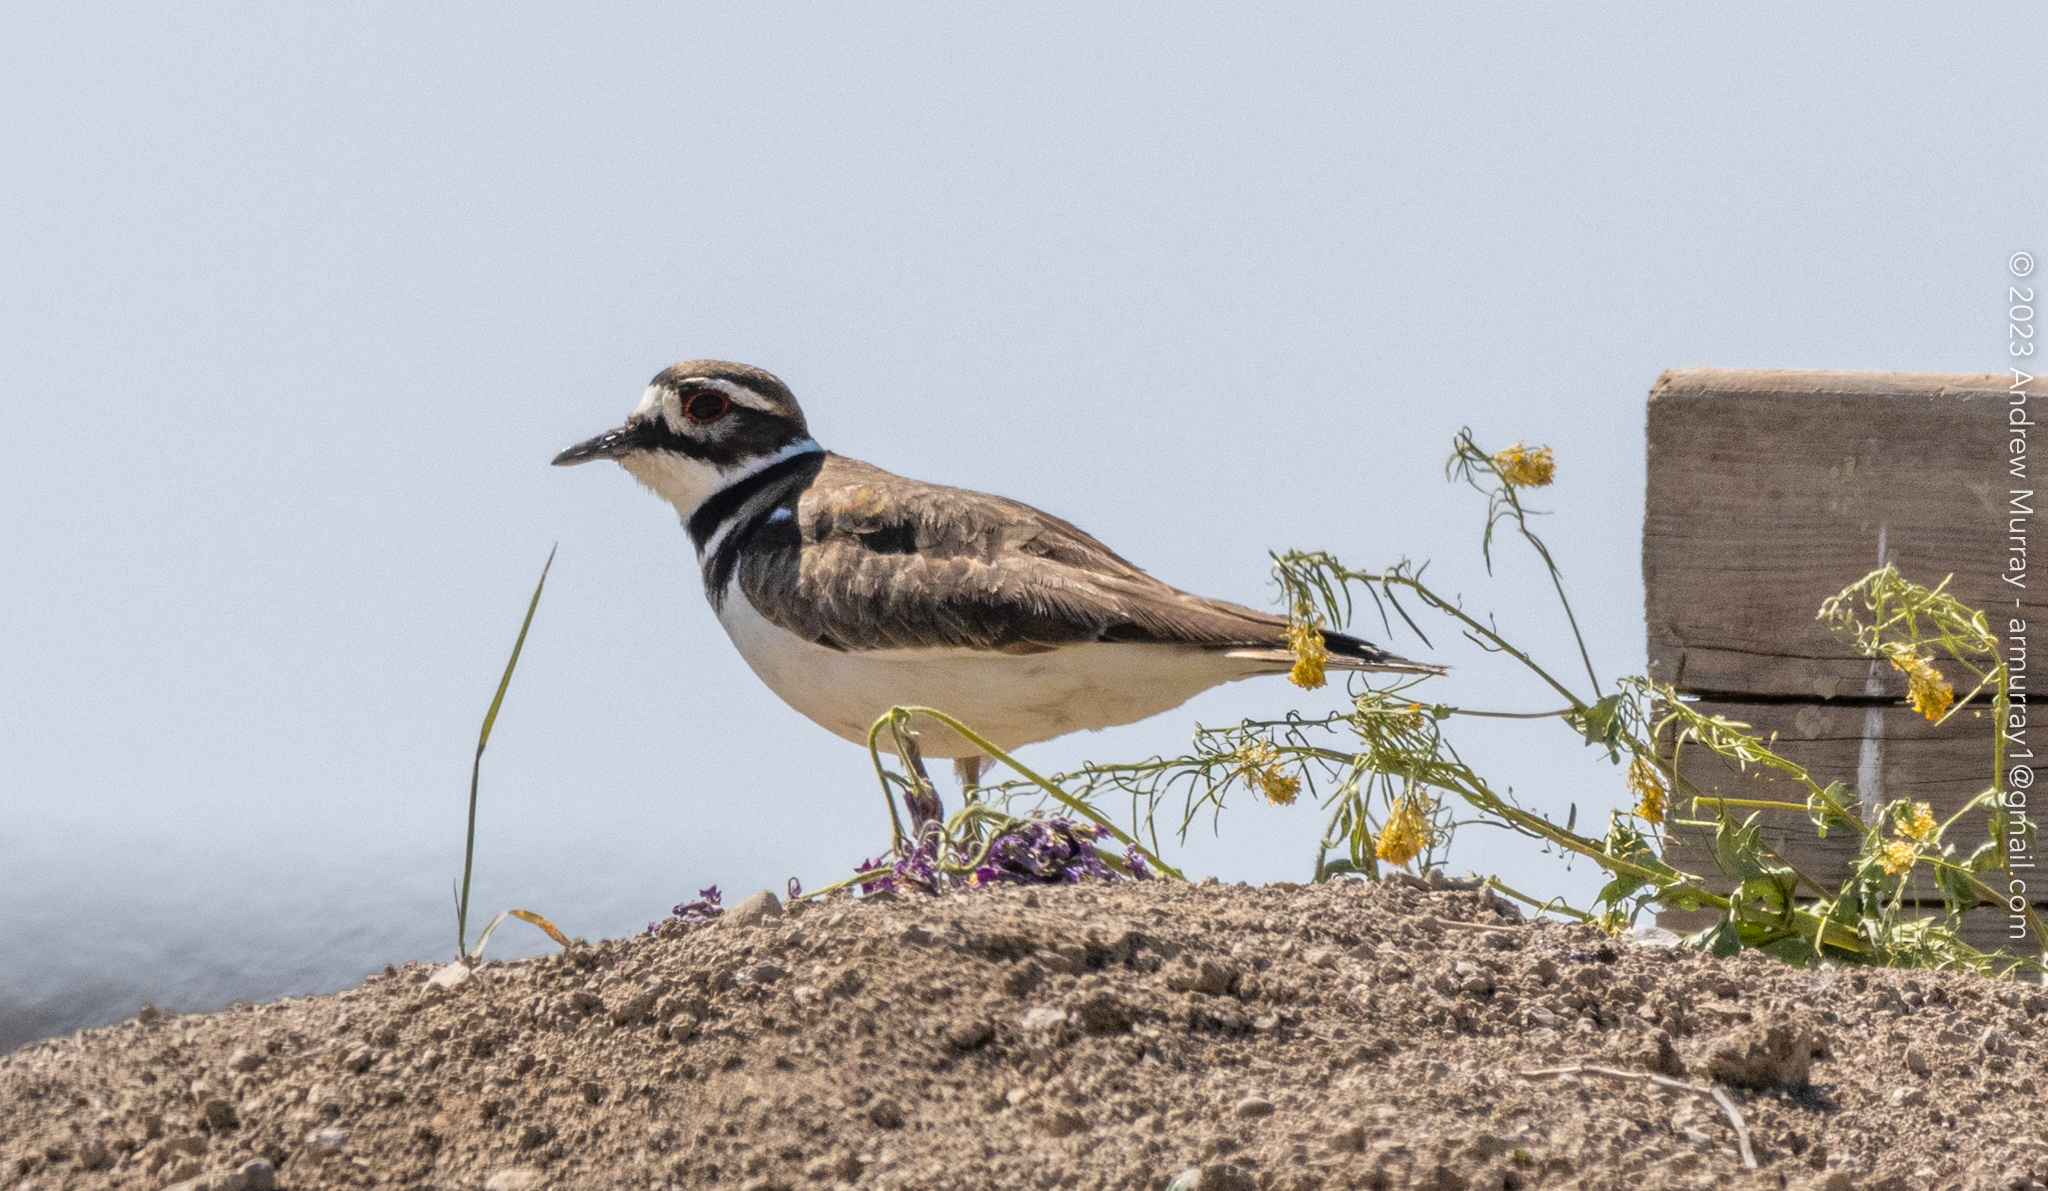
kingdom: Animalia
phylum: Chordata
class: Aves
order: Charadriiformes
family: Charadriidae
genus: Charadrius
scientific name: Charadrius vociferus
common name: Killdeer
